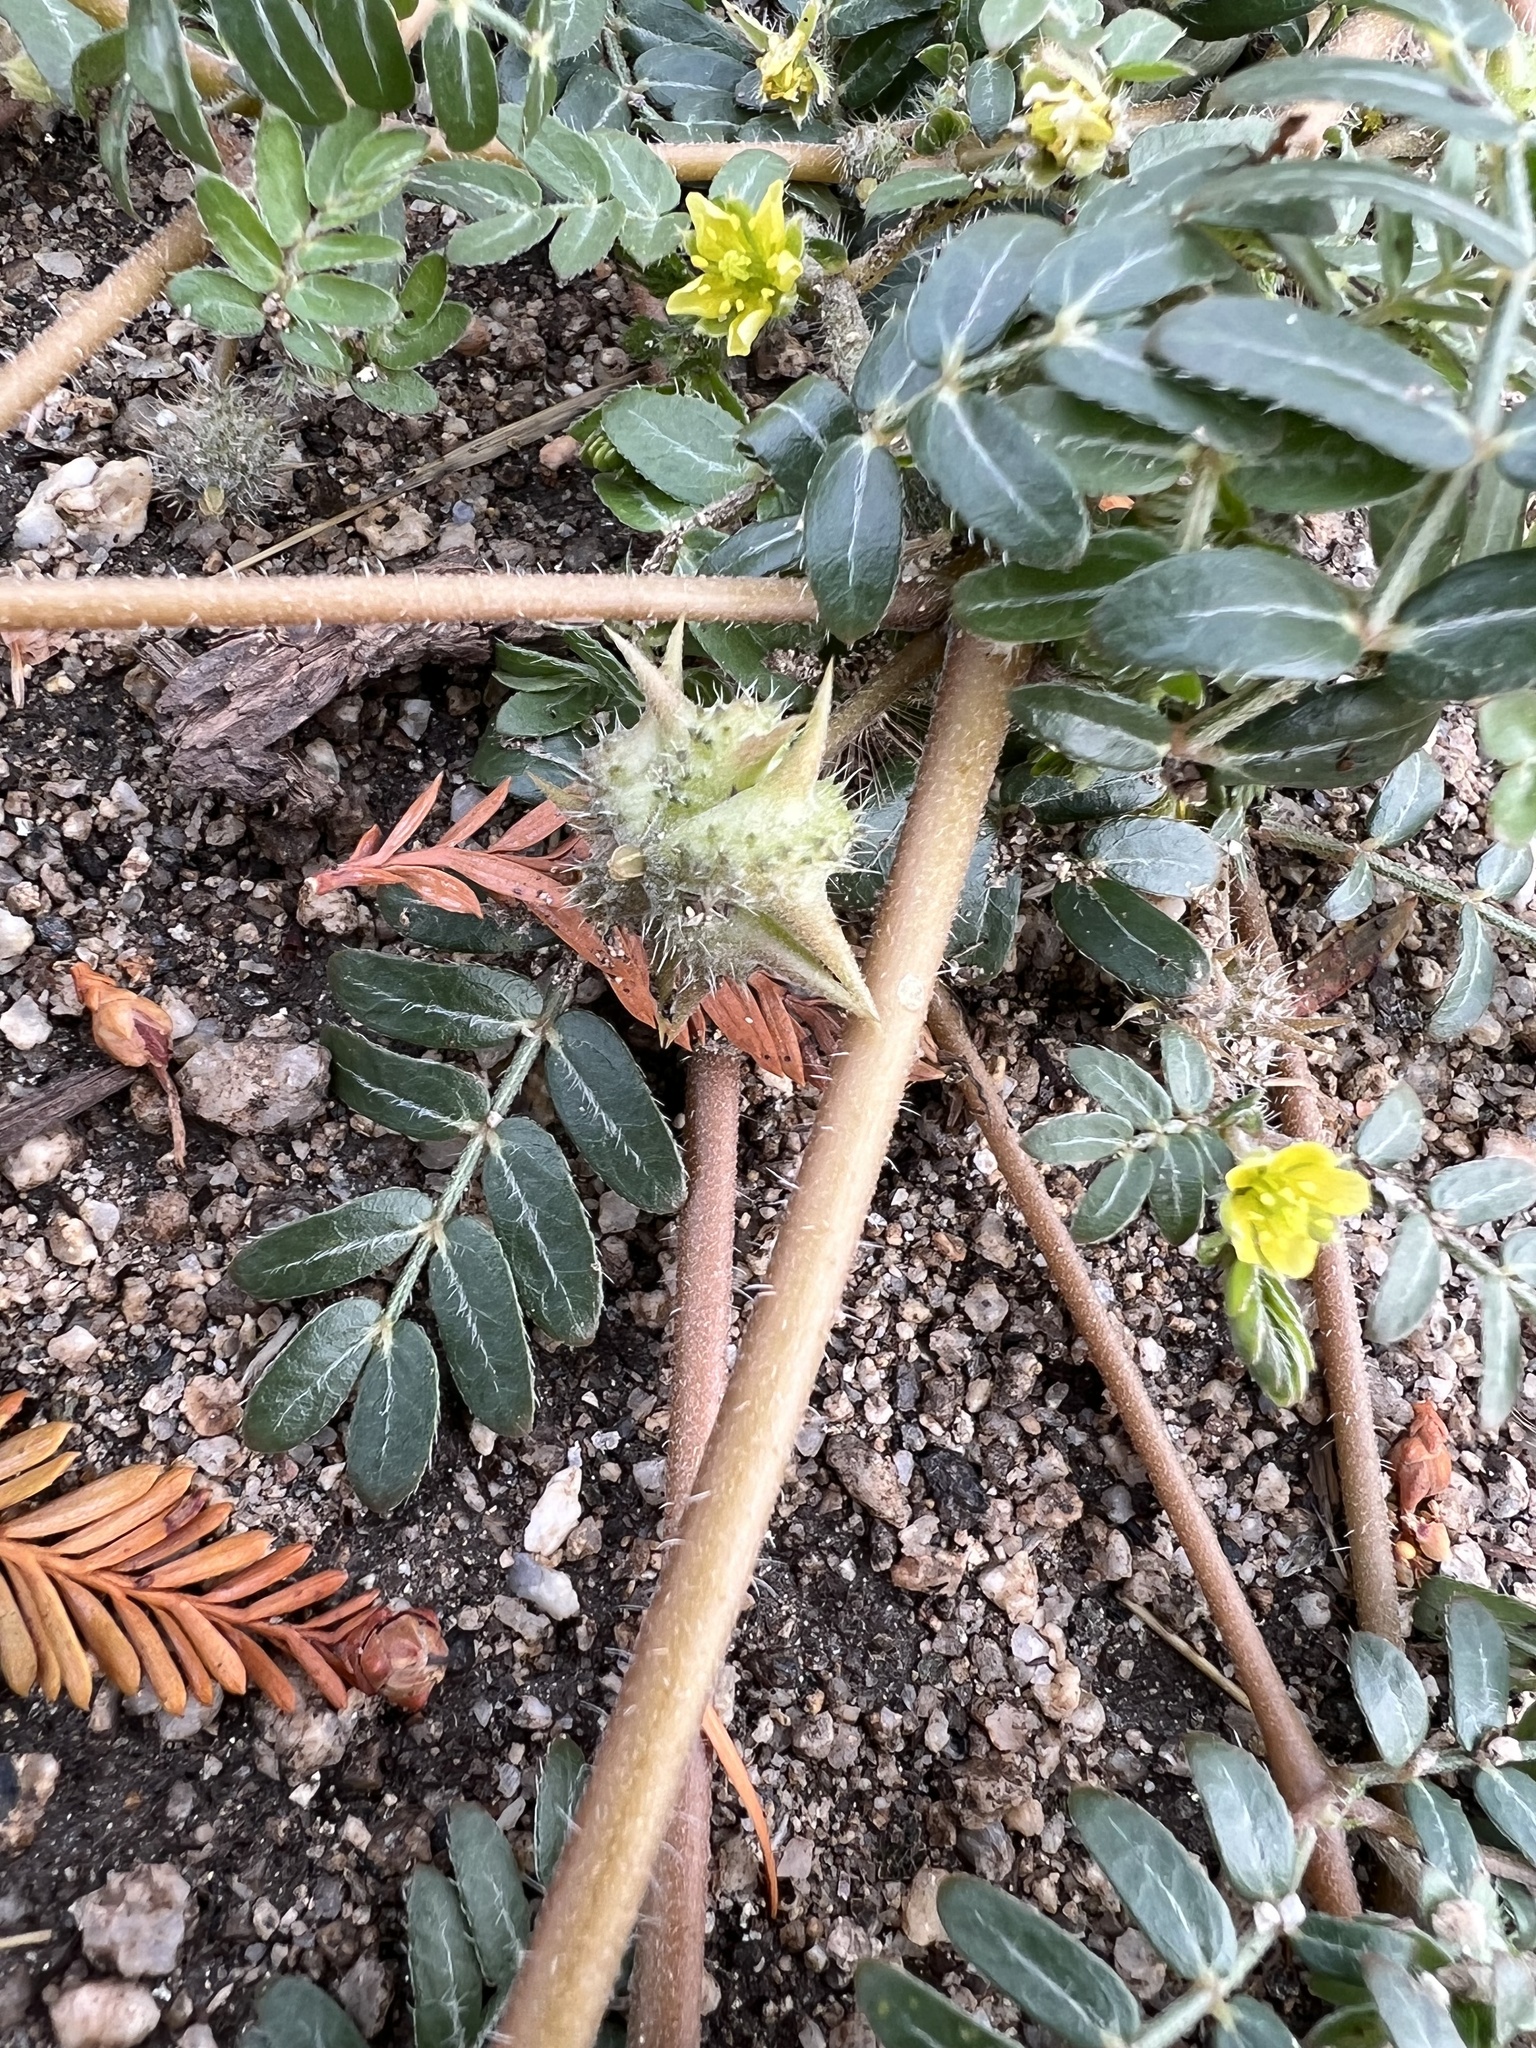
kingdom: Plantae
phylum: Tracheophyta
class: Magnoliopsida
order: Zygophyllales
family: Zygophyllaceae
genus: Tribulus
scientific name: Tribulus terrestris
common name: Puncturevine
